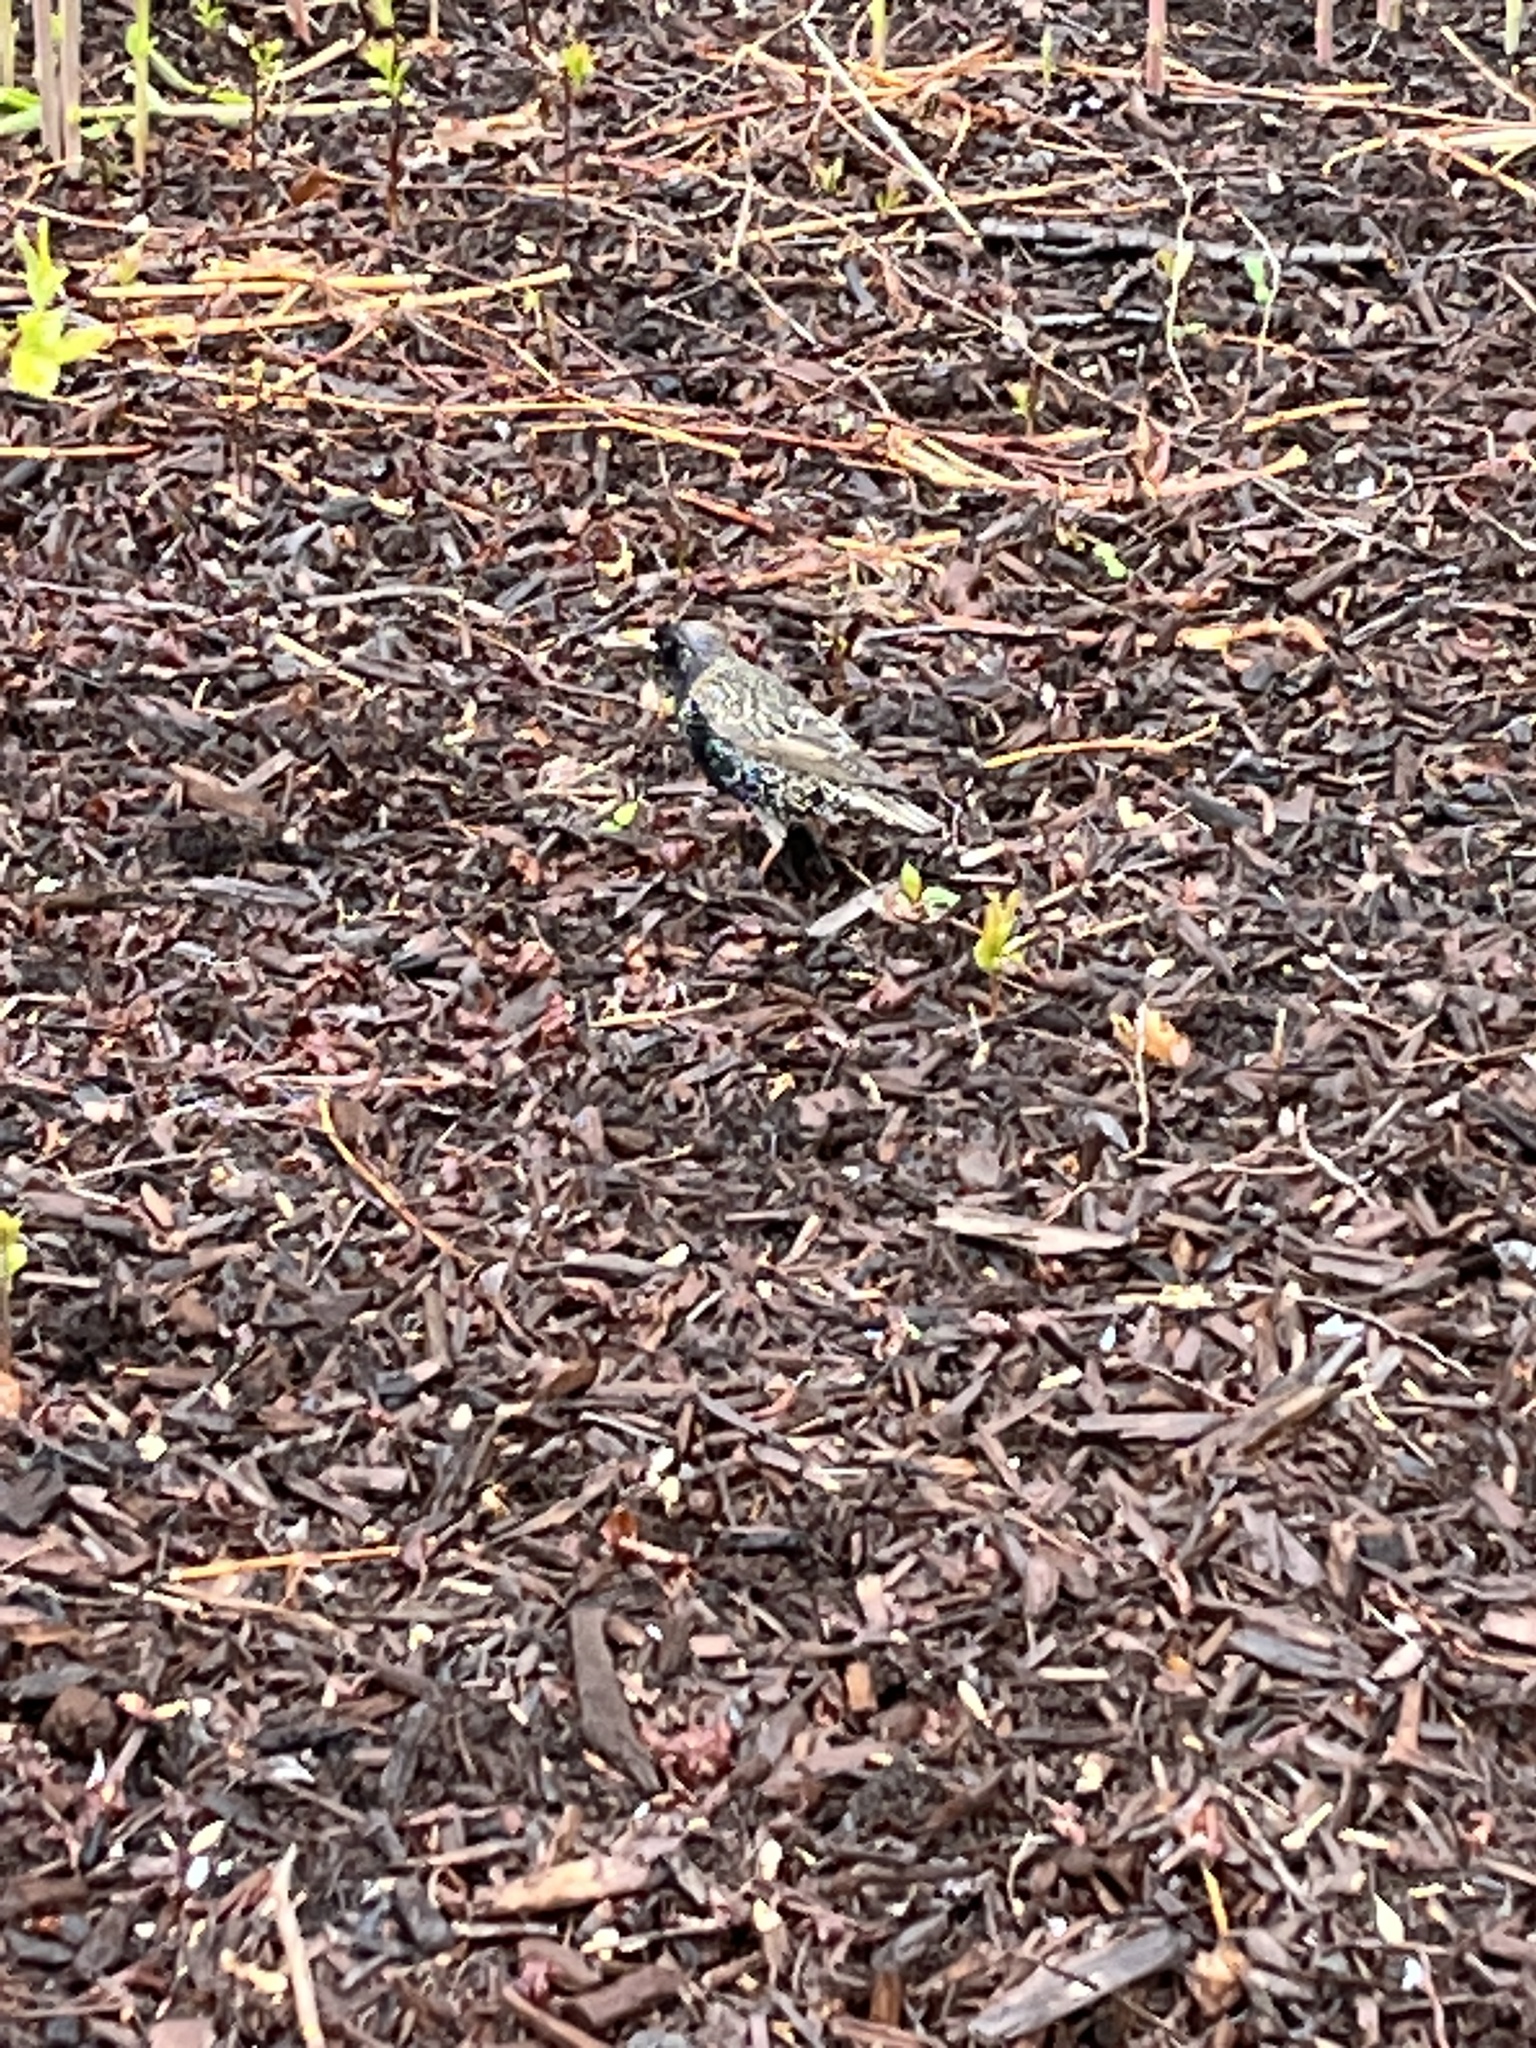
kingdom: Animalia
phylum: Chordata
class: Aves
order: Passeriformes
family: Sturnidae
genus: Sturnus
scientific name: Sturnus vulgaris
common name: Common starling
